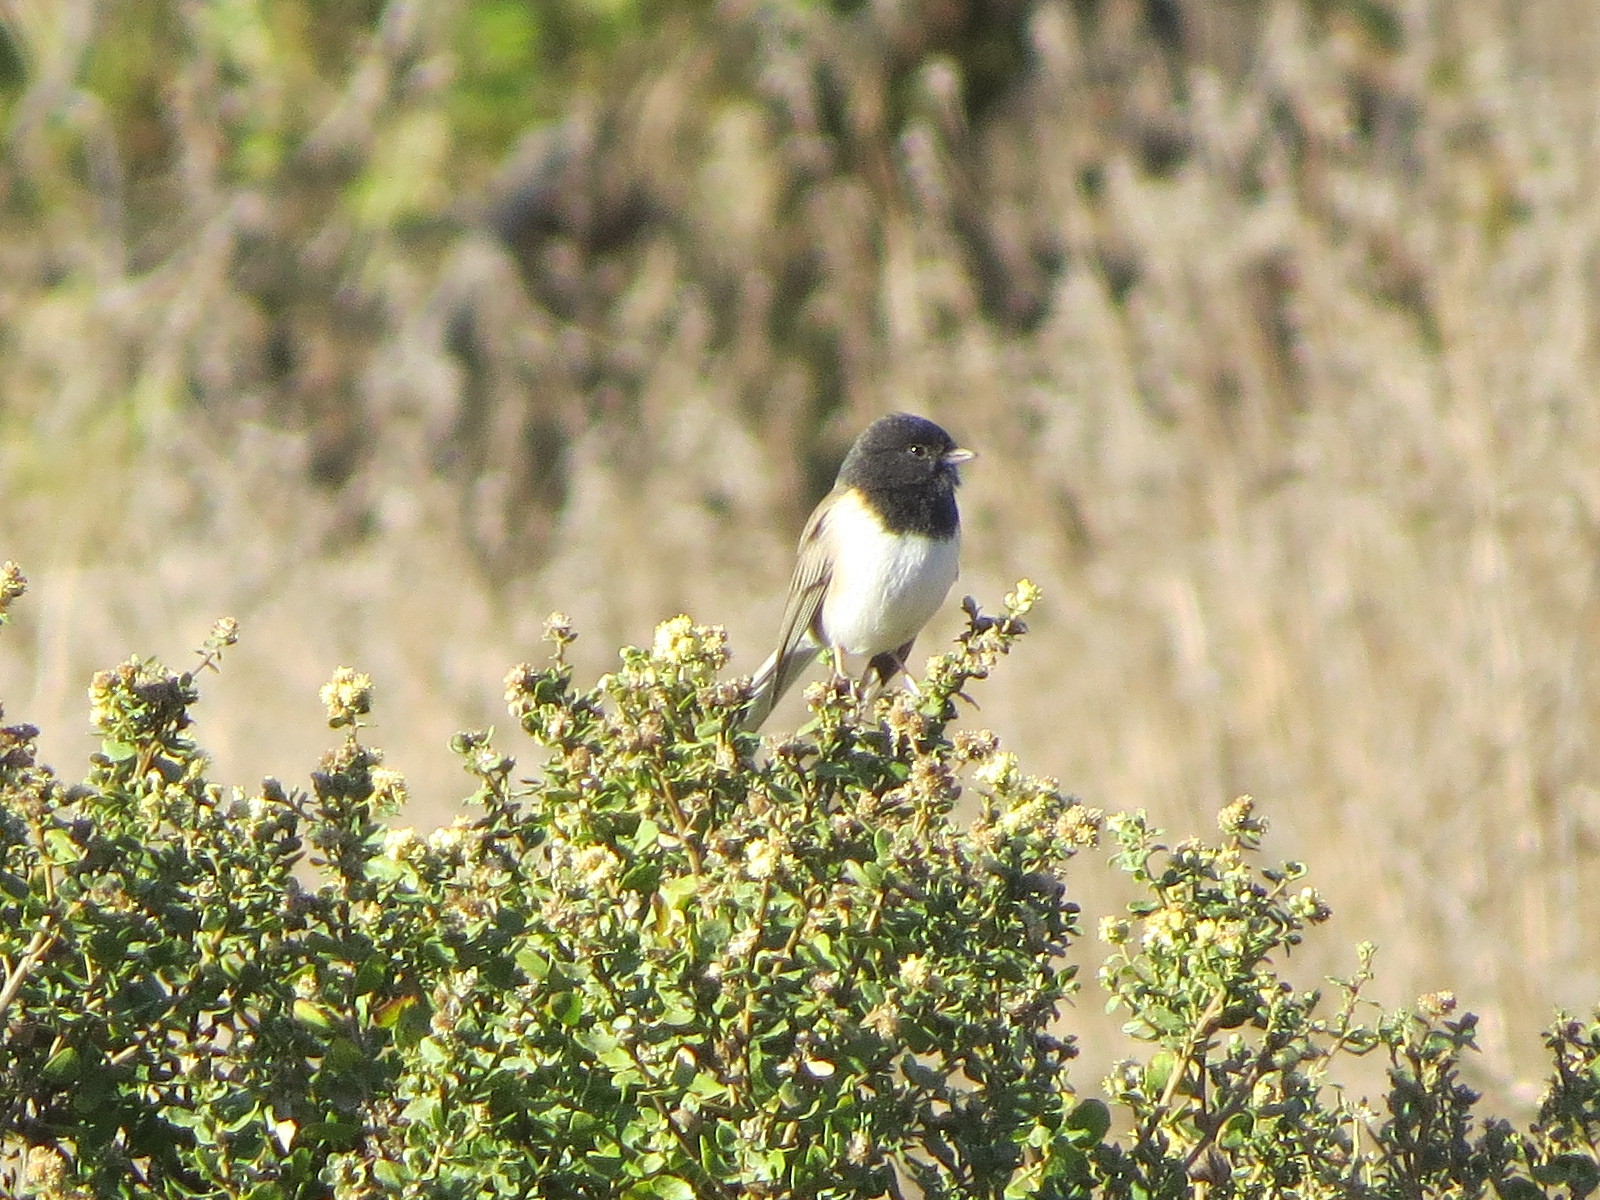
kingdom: Animalia
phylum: Chordata
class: Aves
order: Passeriformes
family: Passerellidae
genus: Junco
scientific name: Junco hyemalis
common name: Dark-eyed junco
